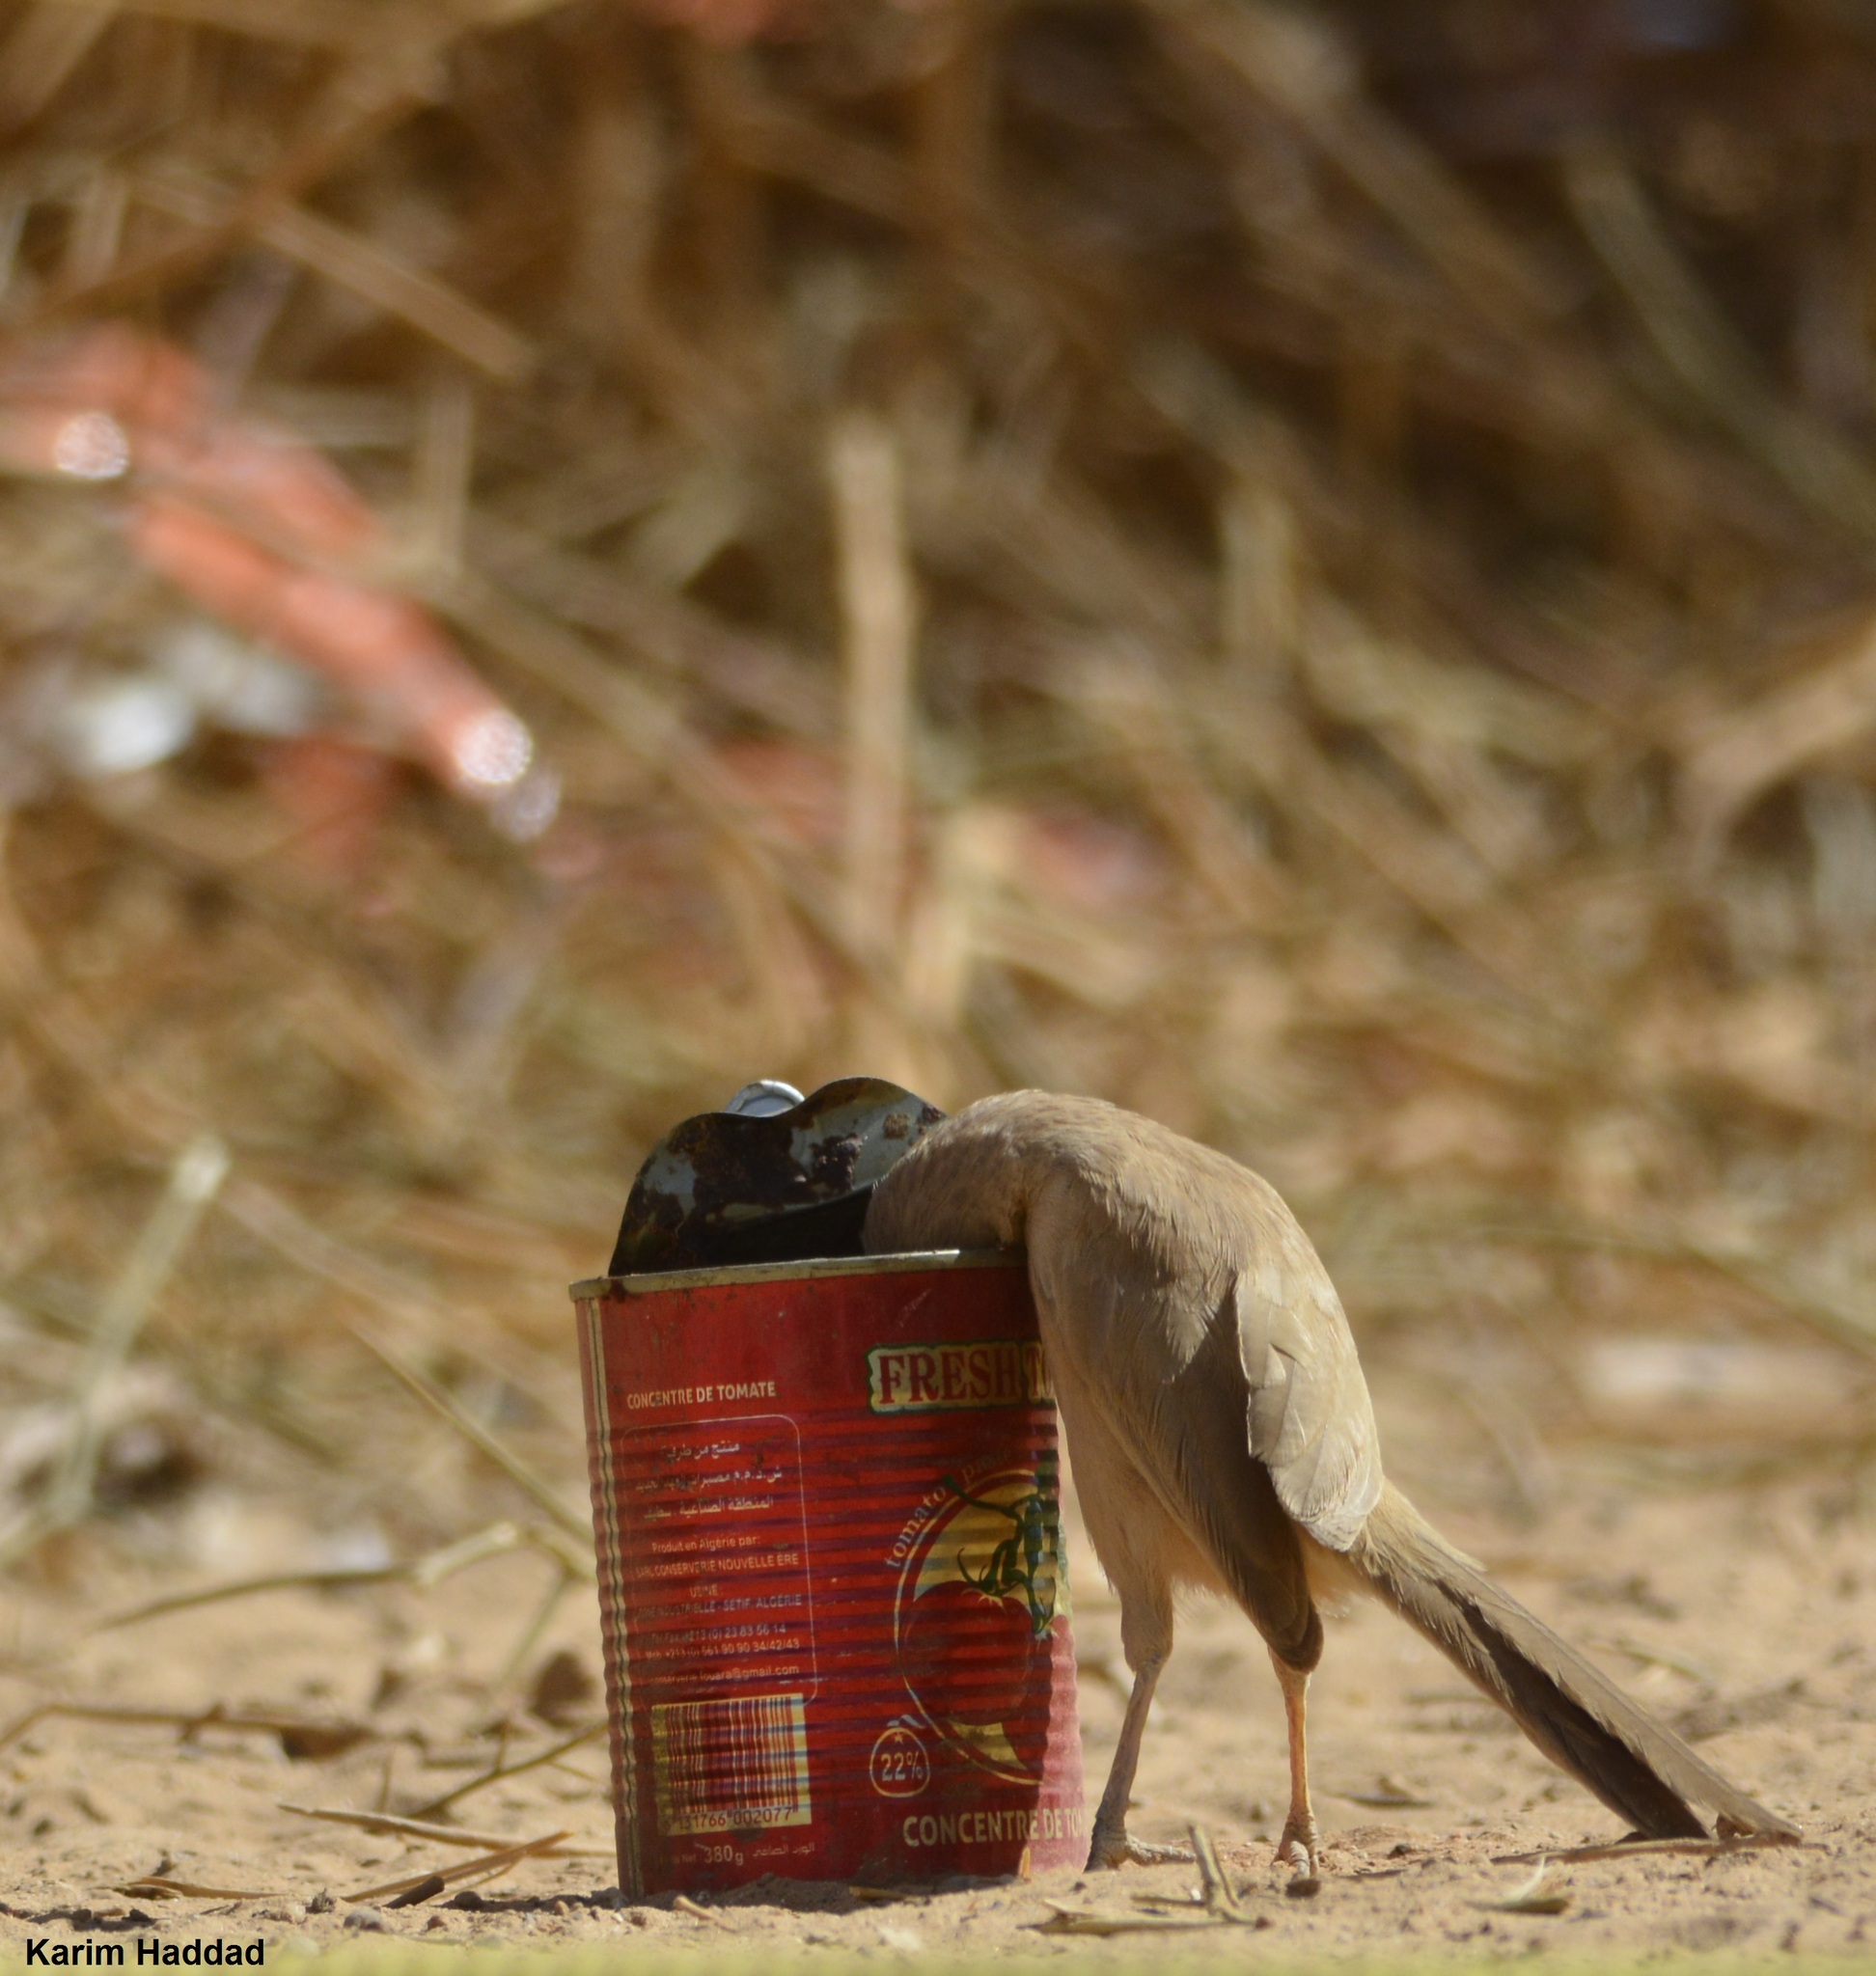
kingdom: Animalia
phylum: Chordata
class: Aves
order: Passeriformes
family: Leiothrichidae
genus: Turdoides
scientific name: Turdoides fulva
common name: Fulvous babbler
